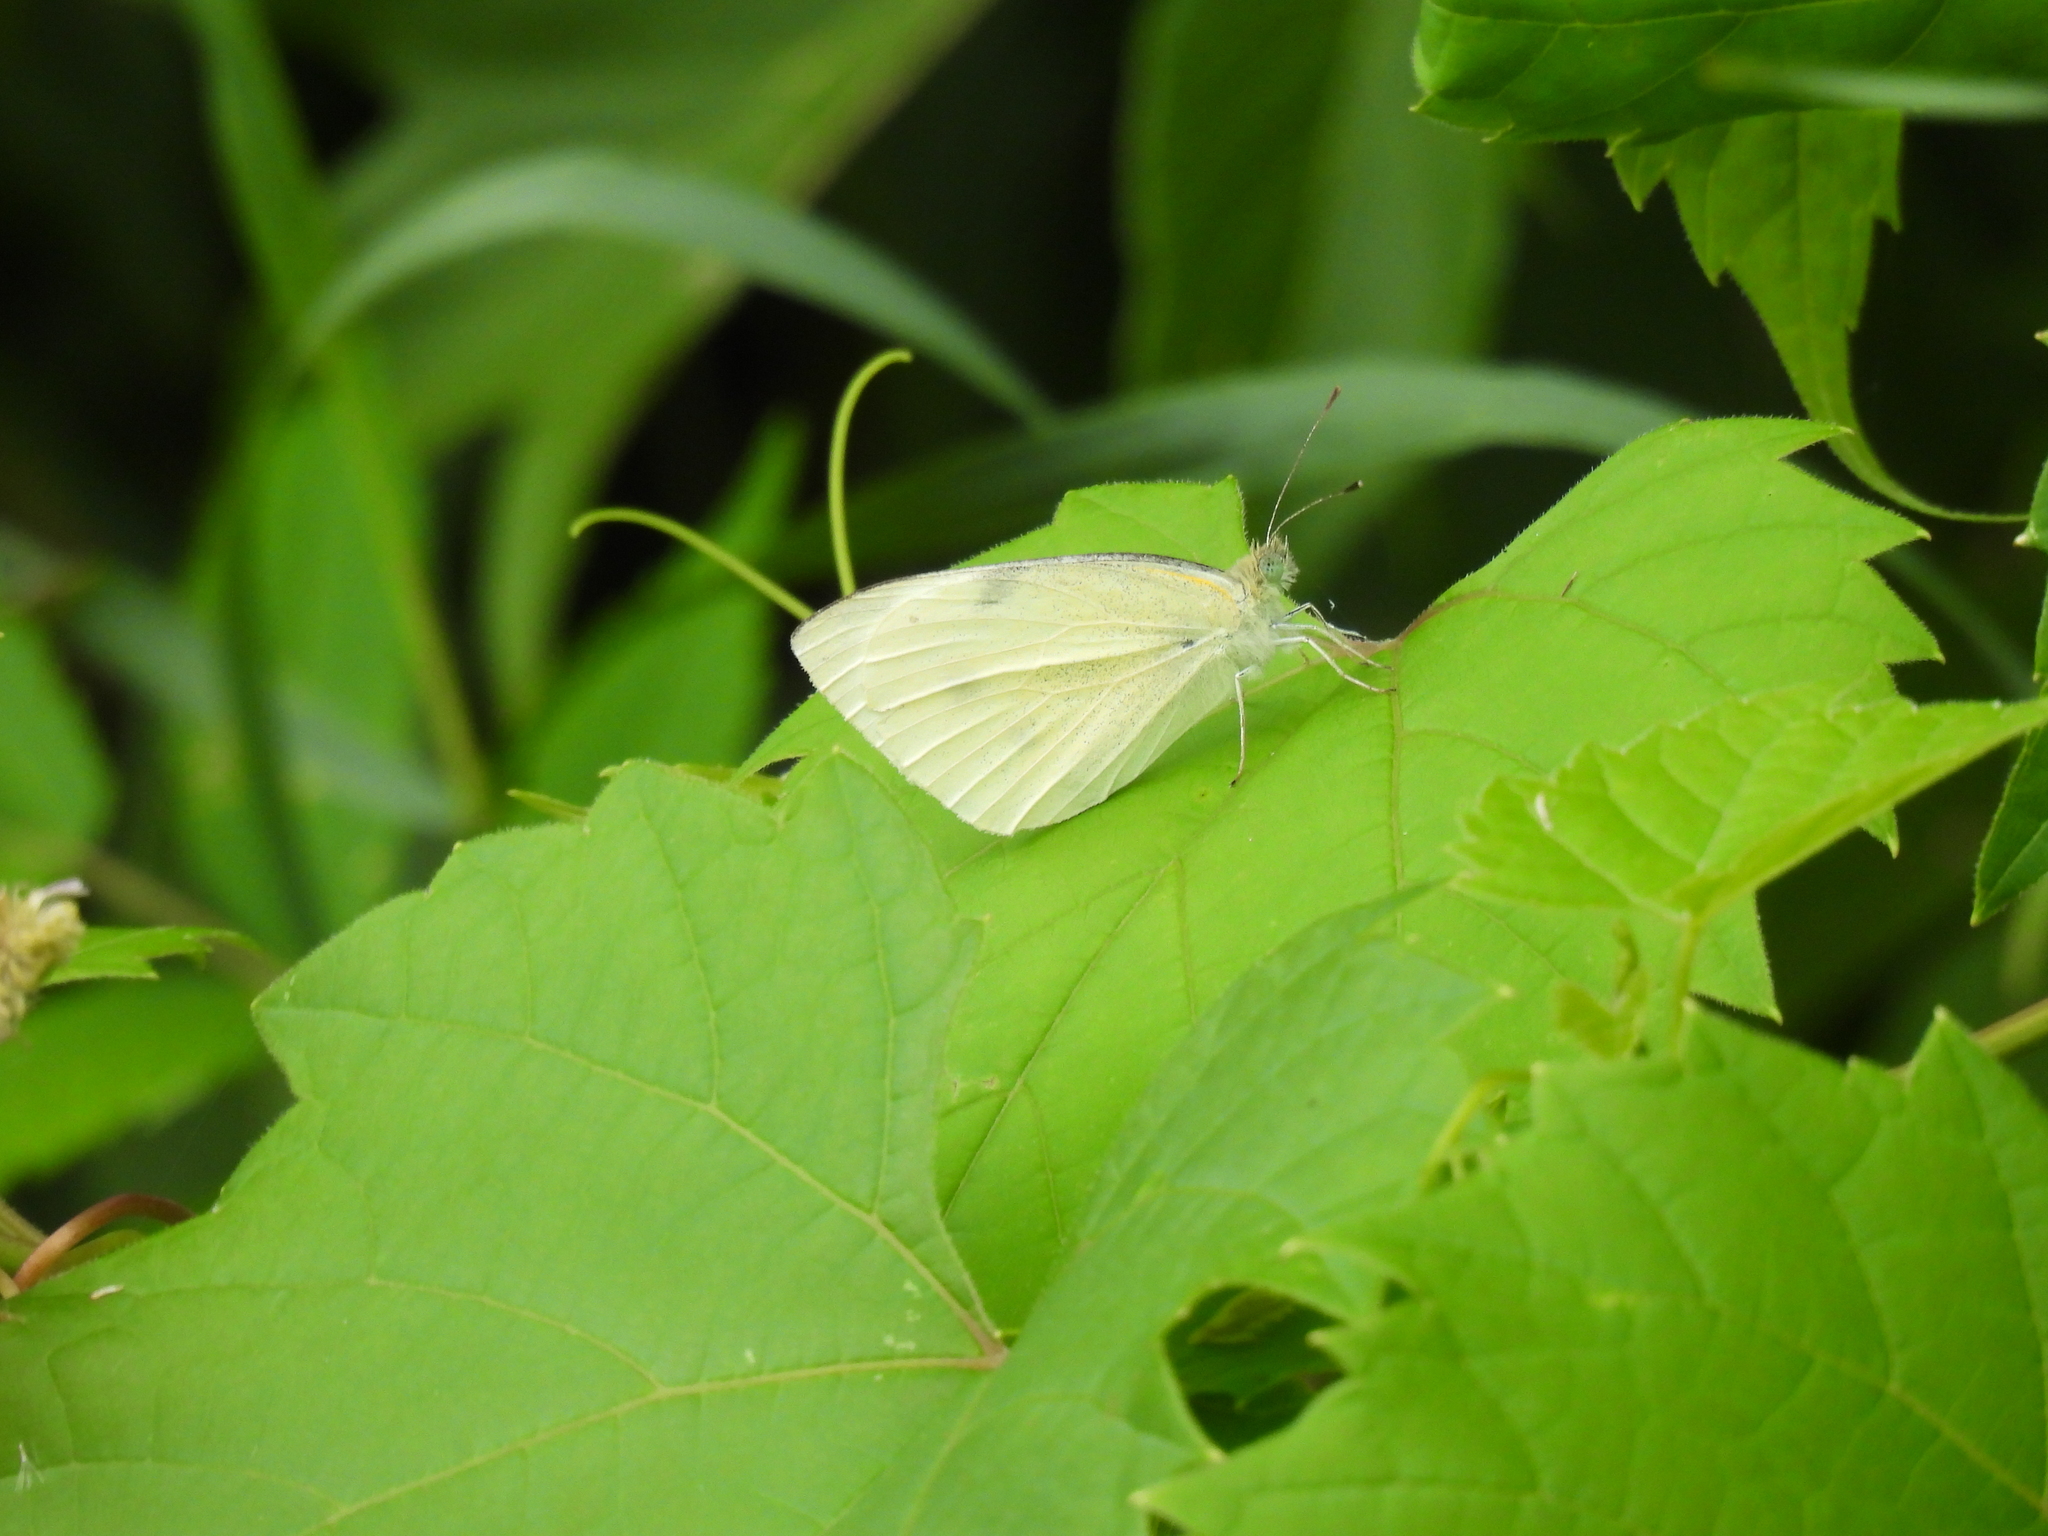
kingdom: Animalia
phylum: Arthropoda
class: Insecta
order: Lepidoptera
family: Pieridae
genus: Pieris
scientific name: Pieris rapae
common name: Small white
